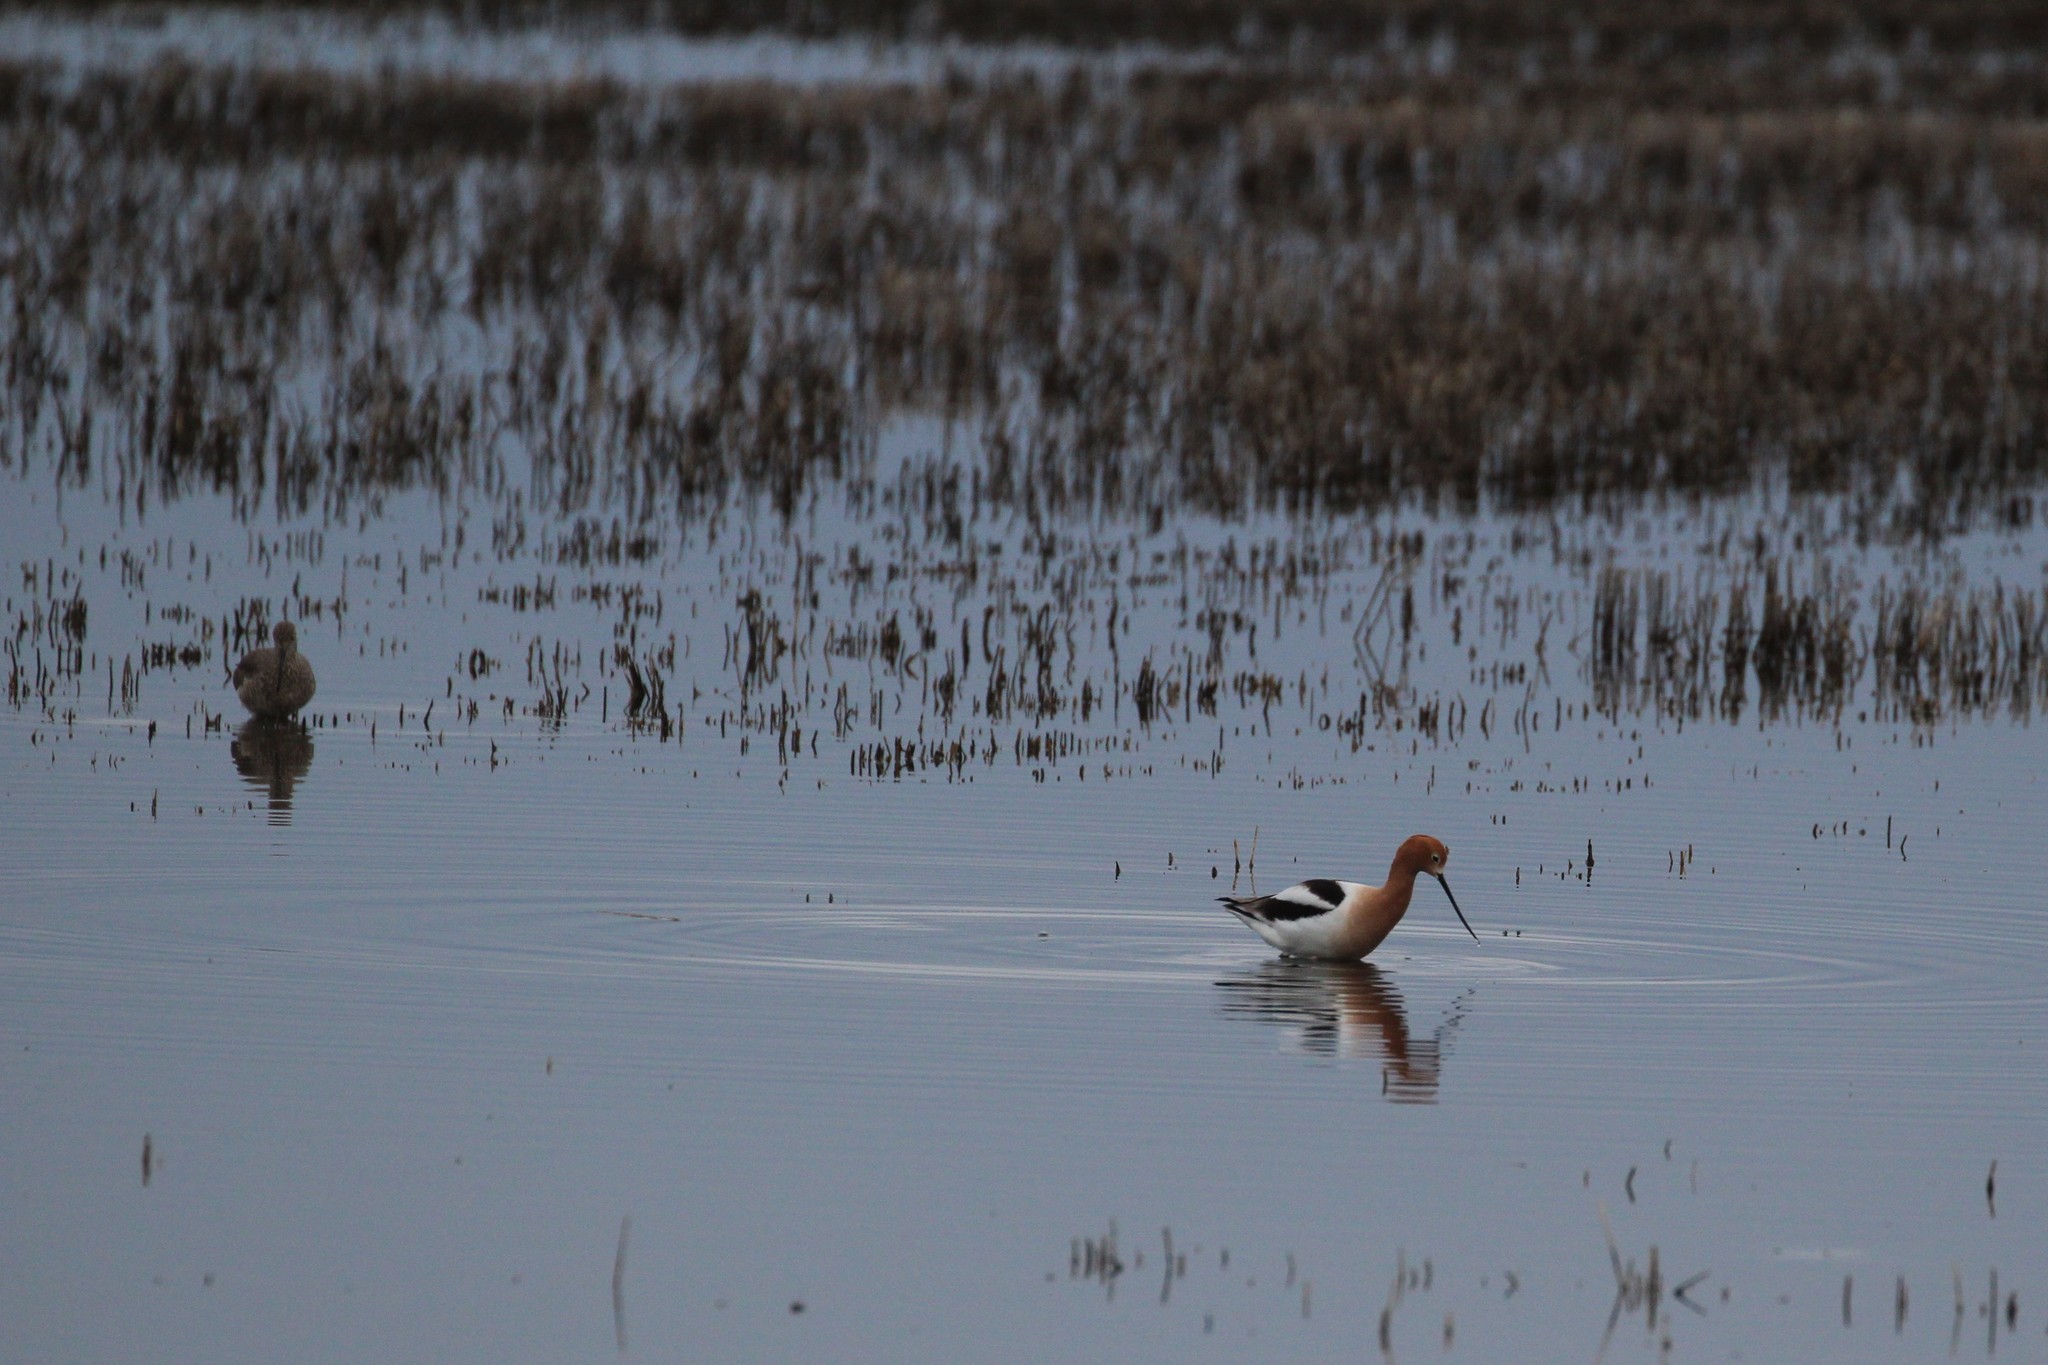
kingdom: Animalia
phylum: Chordata
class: Aves
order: Charadriiformes
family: Recurvirostridae
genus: Recurvirostra
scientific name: Recurvirostra americana
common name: American avocet
